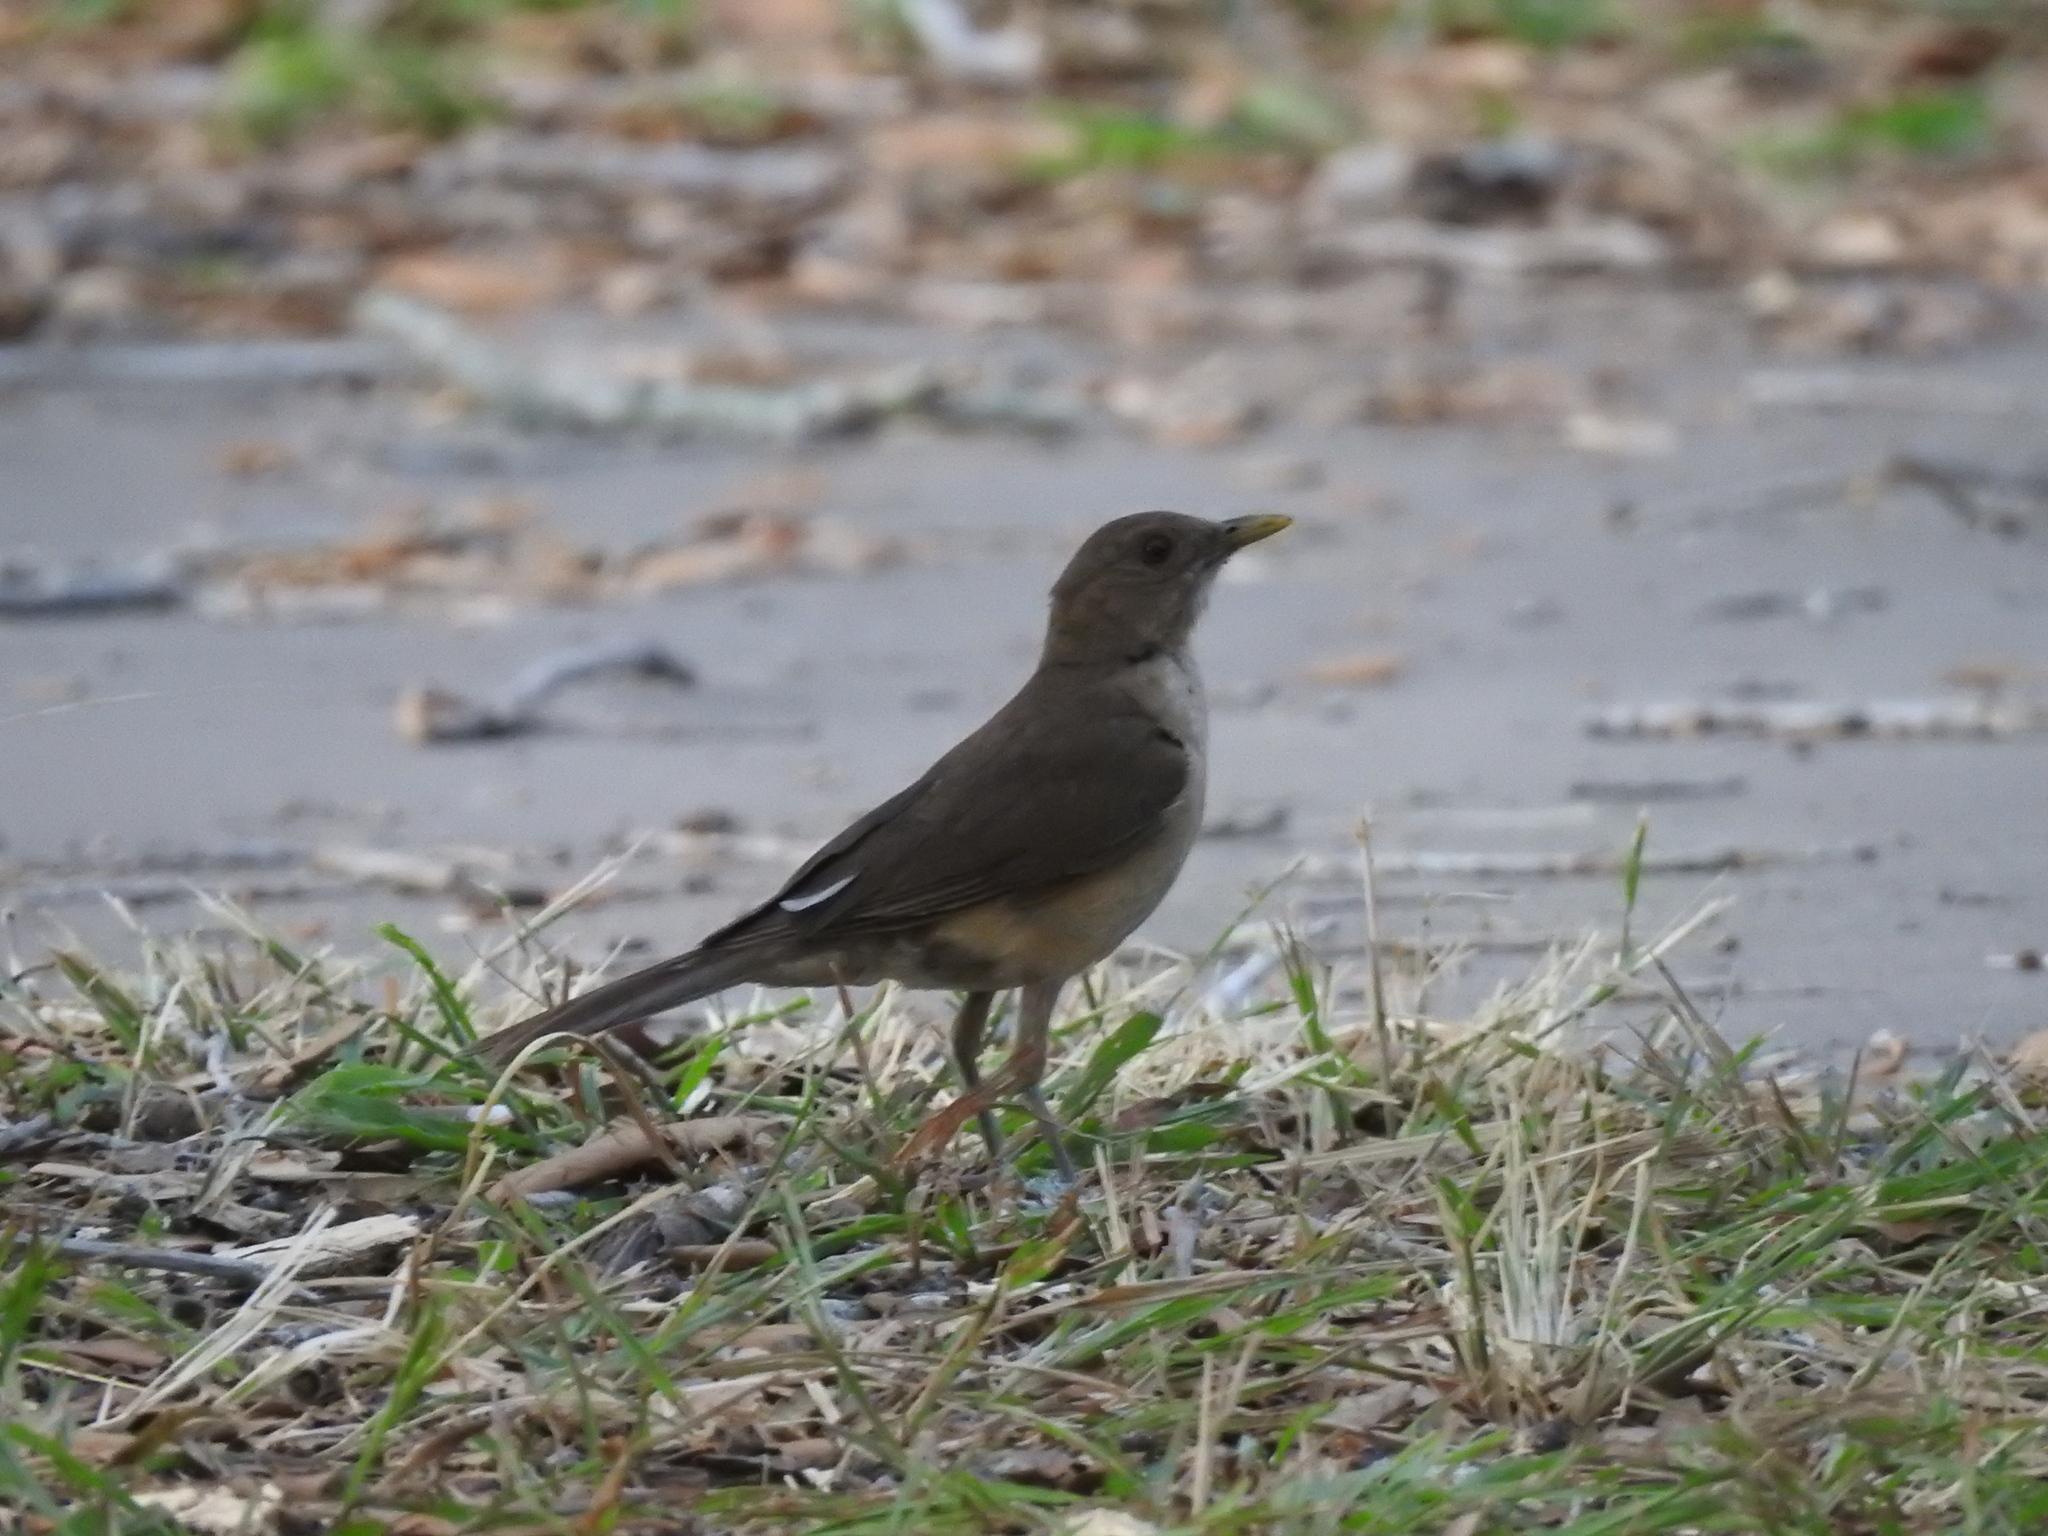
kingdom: Animalia
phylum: Chordata
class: Aves
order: Passeriformes
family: Turdidae
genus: Turdus
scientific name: Turdus grayi
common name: Clay-colored thrush
